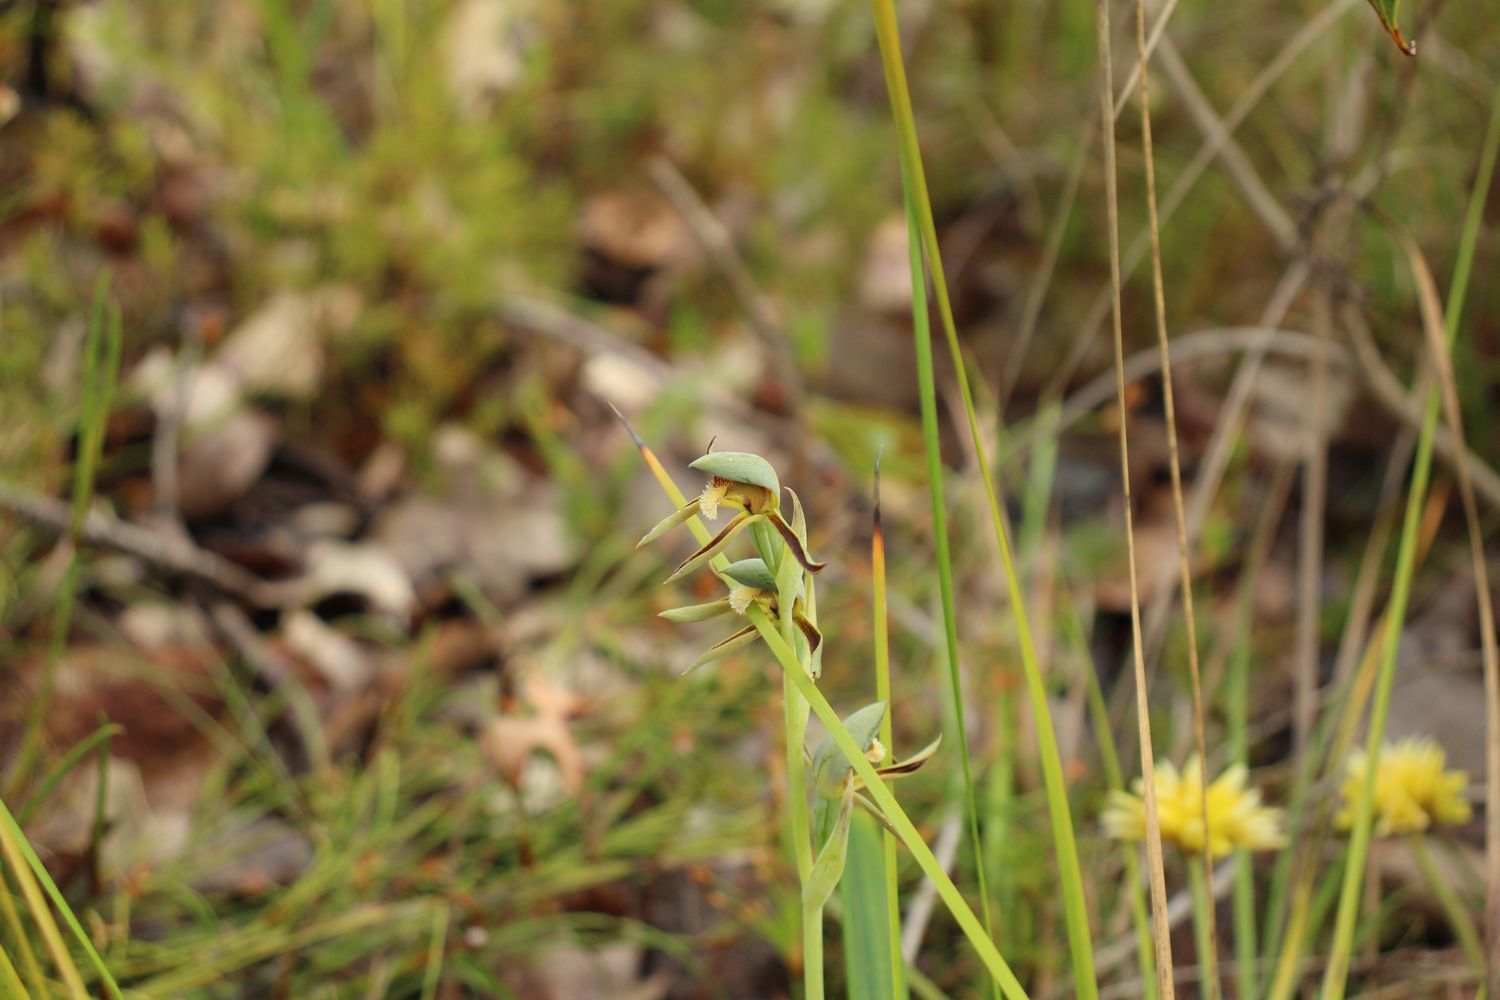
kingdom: Plantae
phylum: Tracheophyta
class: Liliopsida
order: Asparagales
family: Orchidaceae
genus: Lyperanthus
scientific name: Lyperanthus serratus
